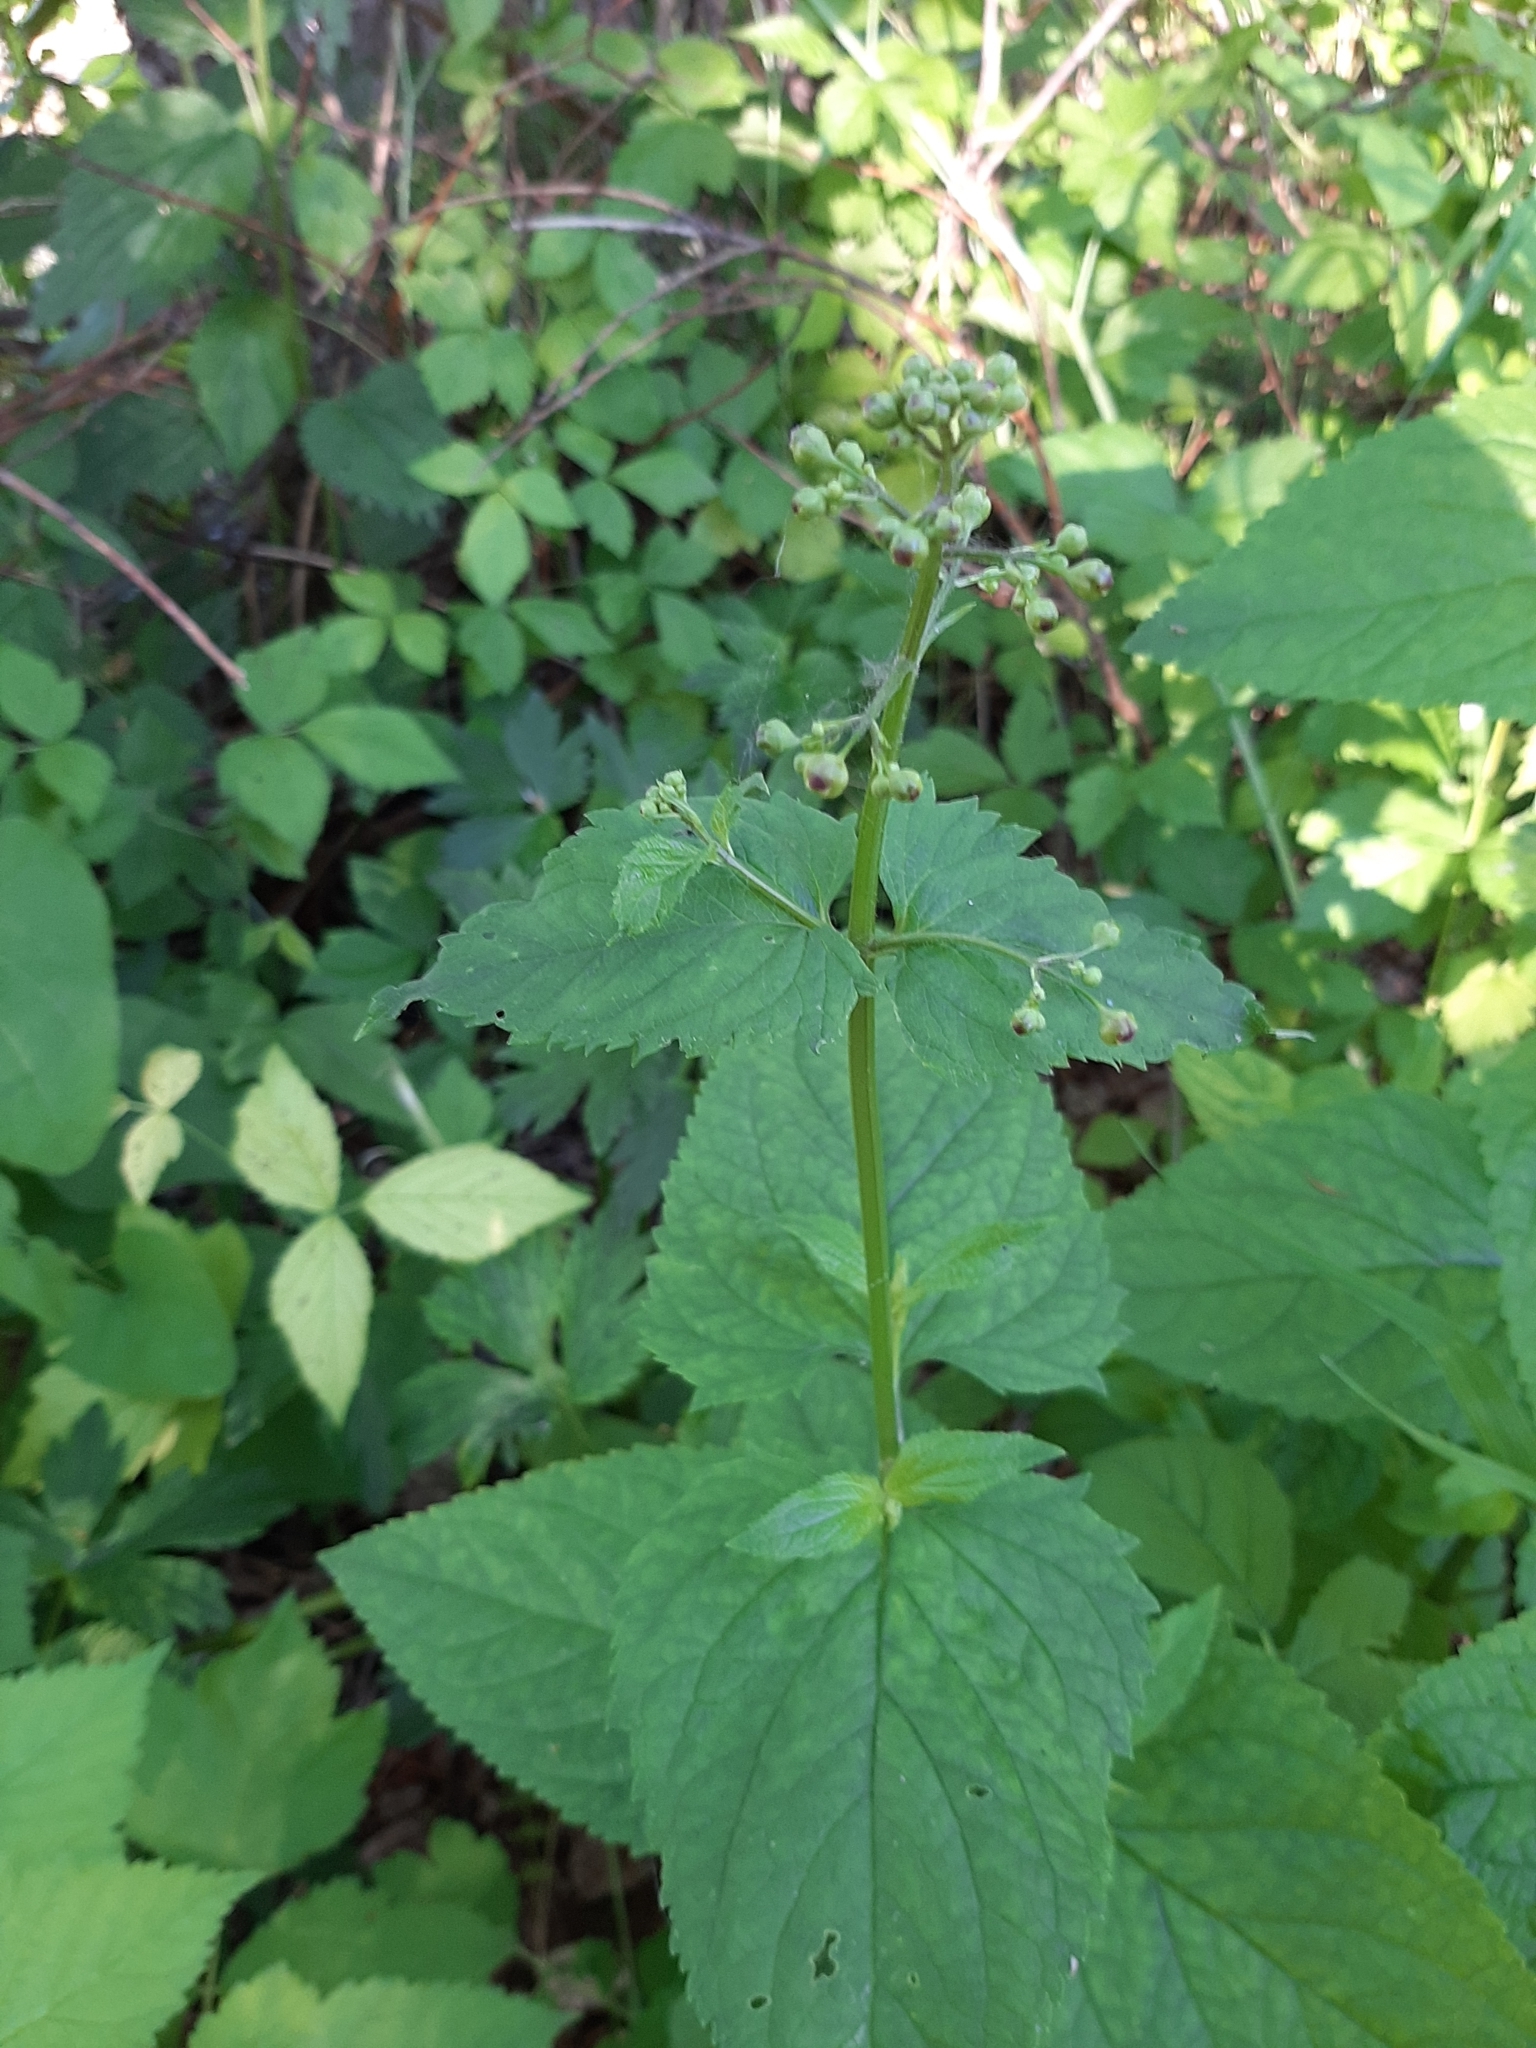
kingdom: Plantae
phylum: Tracheophyta
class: Magnoliopsida
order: Lamiales
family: Scrophulariaceae
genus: Scrophularia
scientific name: Scrophularia nodosa
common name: Common figwort
